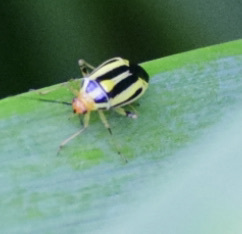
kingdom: Animalia
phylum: Arthropoda
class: Insecta
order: Hemiptera
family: Miridae
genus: Poecilocapsus
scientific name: Poecilocapsus lineatus
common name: Four-lined plant bug
